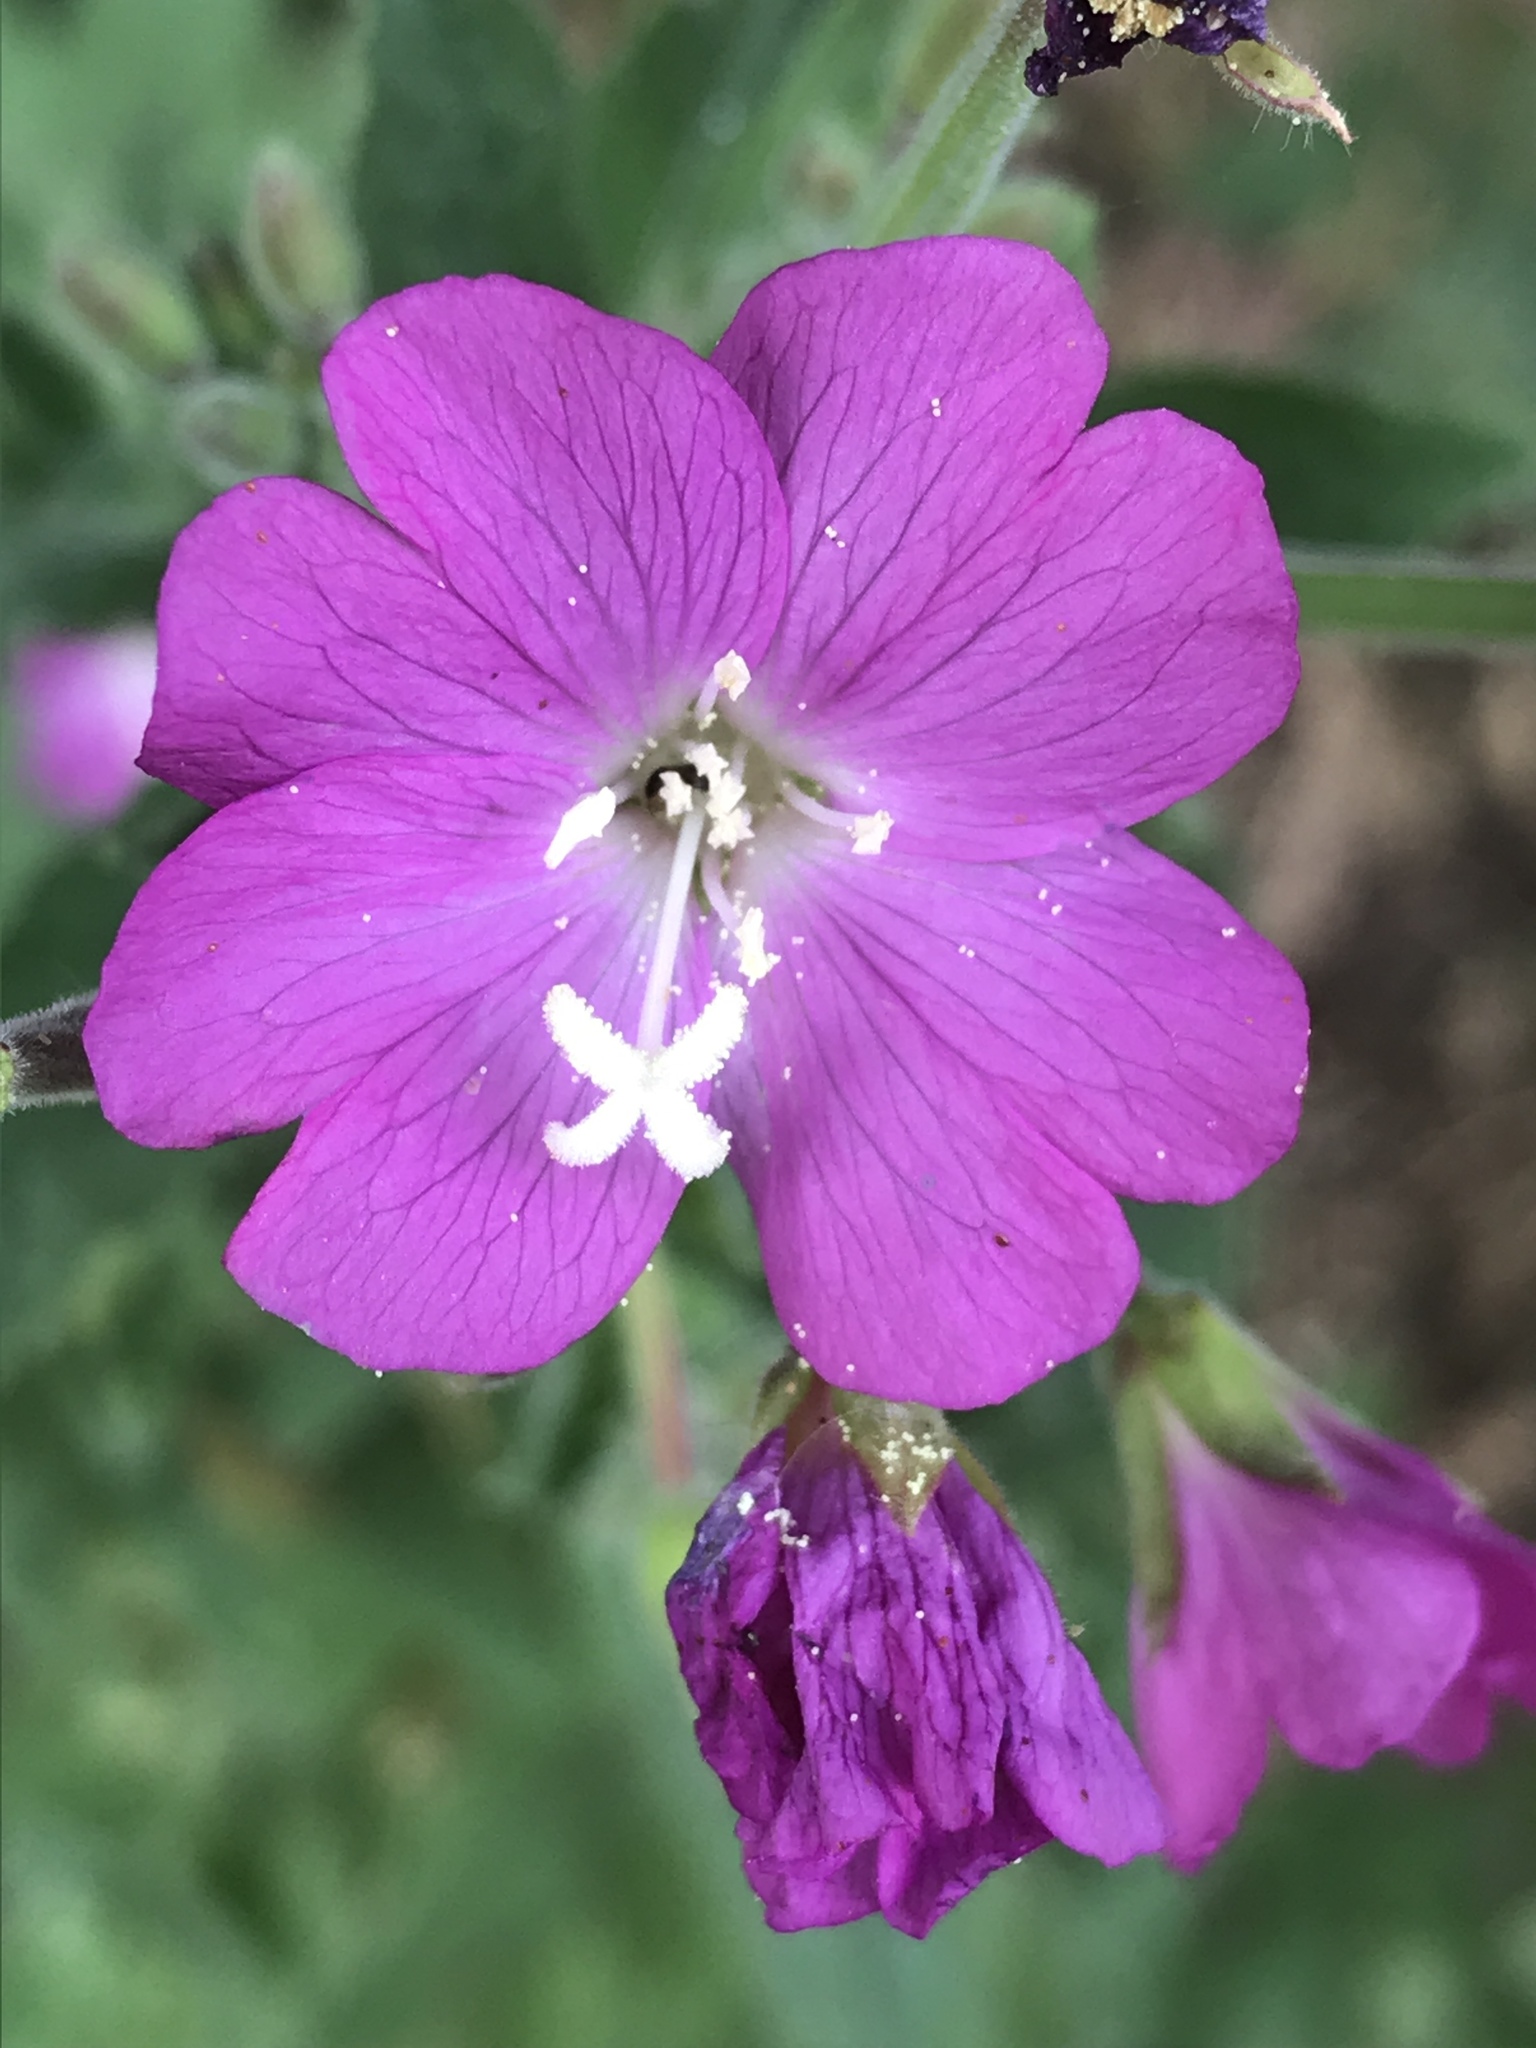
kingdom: Plantae
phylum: Tracheophyta
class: Magnoliopsida
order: Myrtales
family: Onagraceae
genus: Epilobium
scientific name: Epilobium hirsutum
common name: Great willowherb
